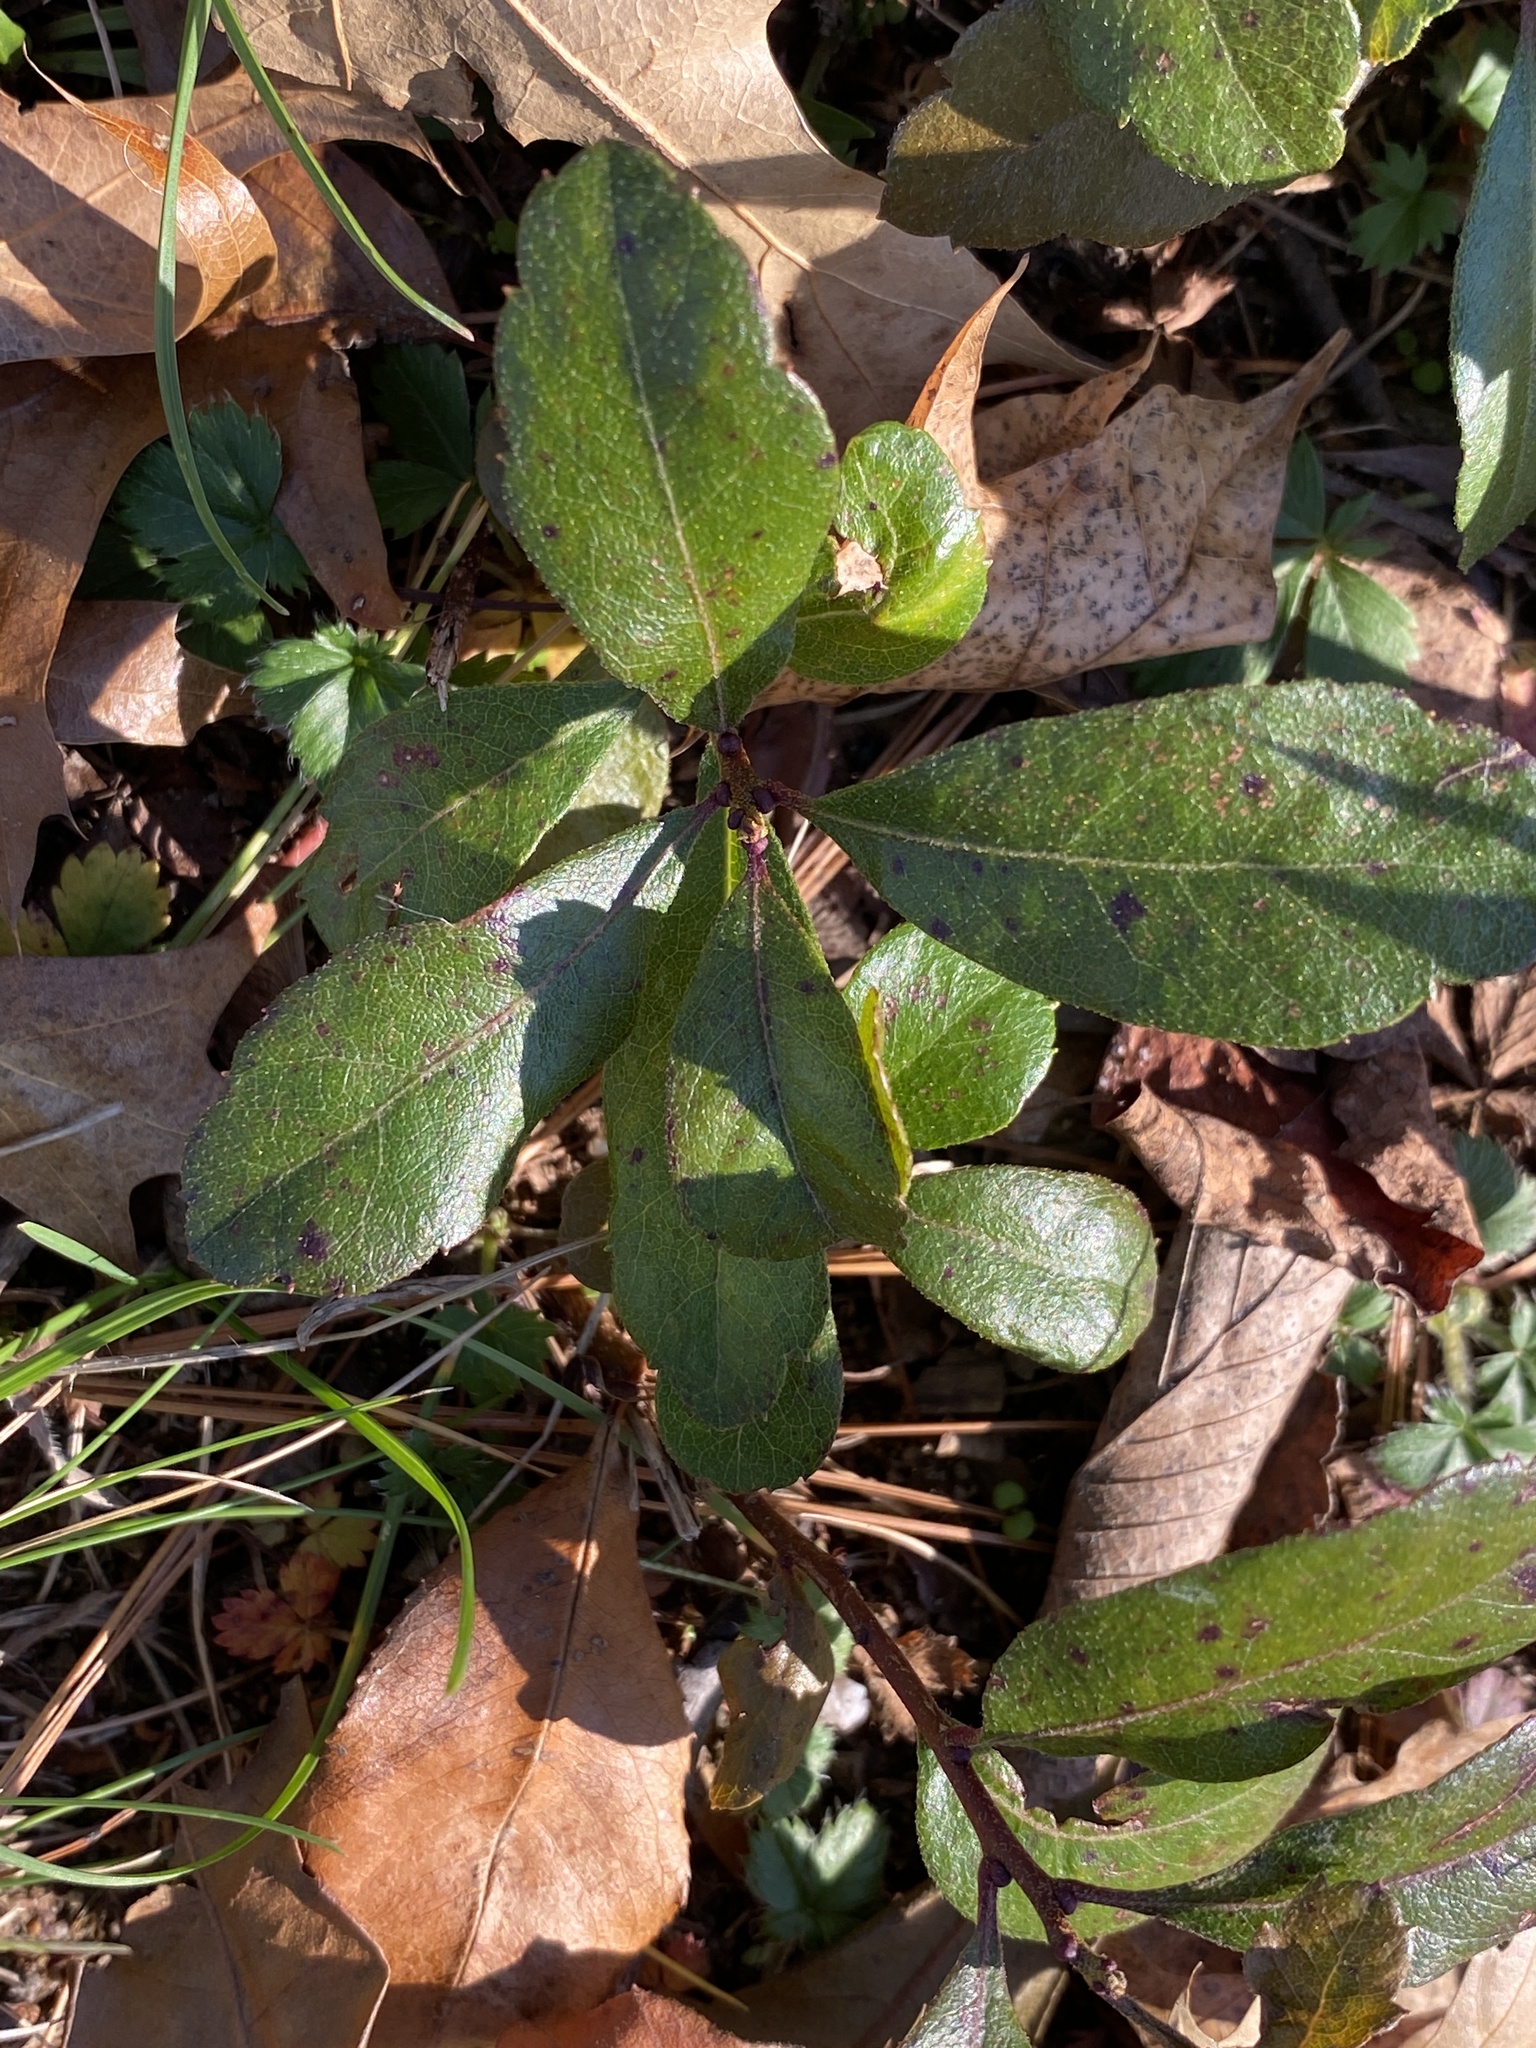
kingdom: Plantae
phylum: Tracheophyta
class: Magnoliopsida
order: Fagales
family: Myricaceae
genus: Morella
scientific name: Morella pensylvanica
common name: Northern bayberry
